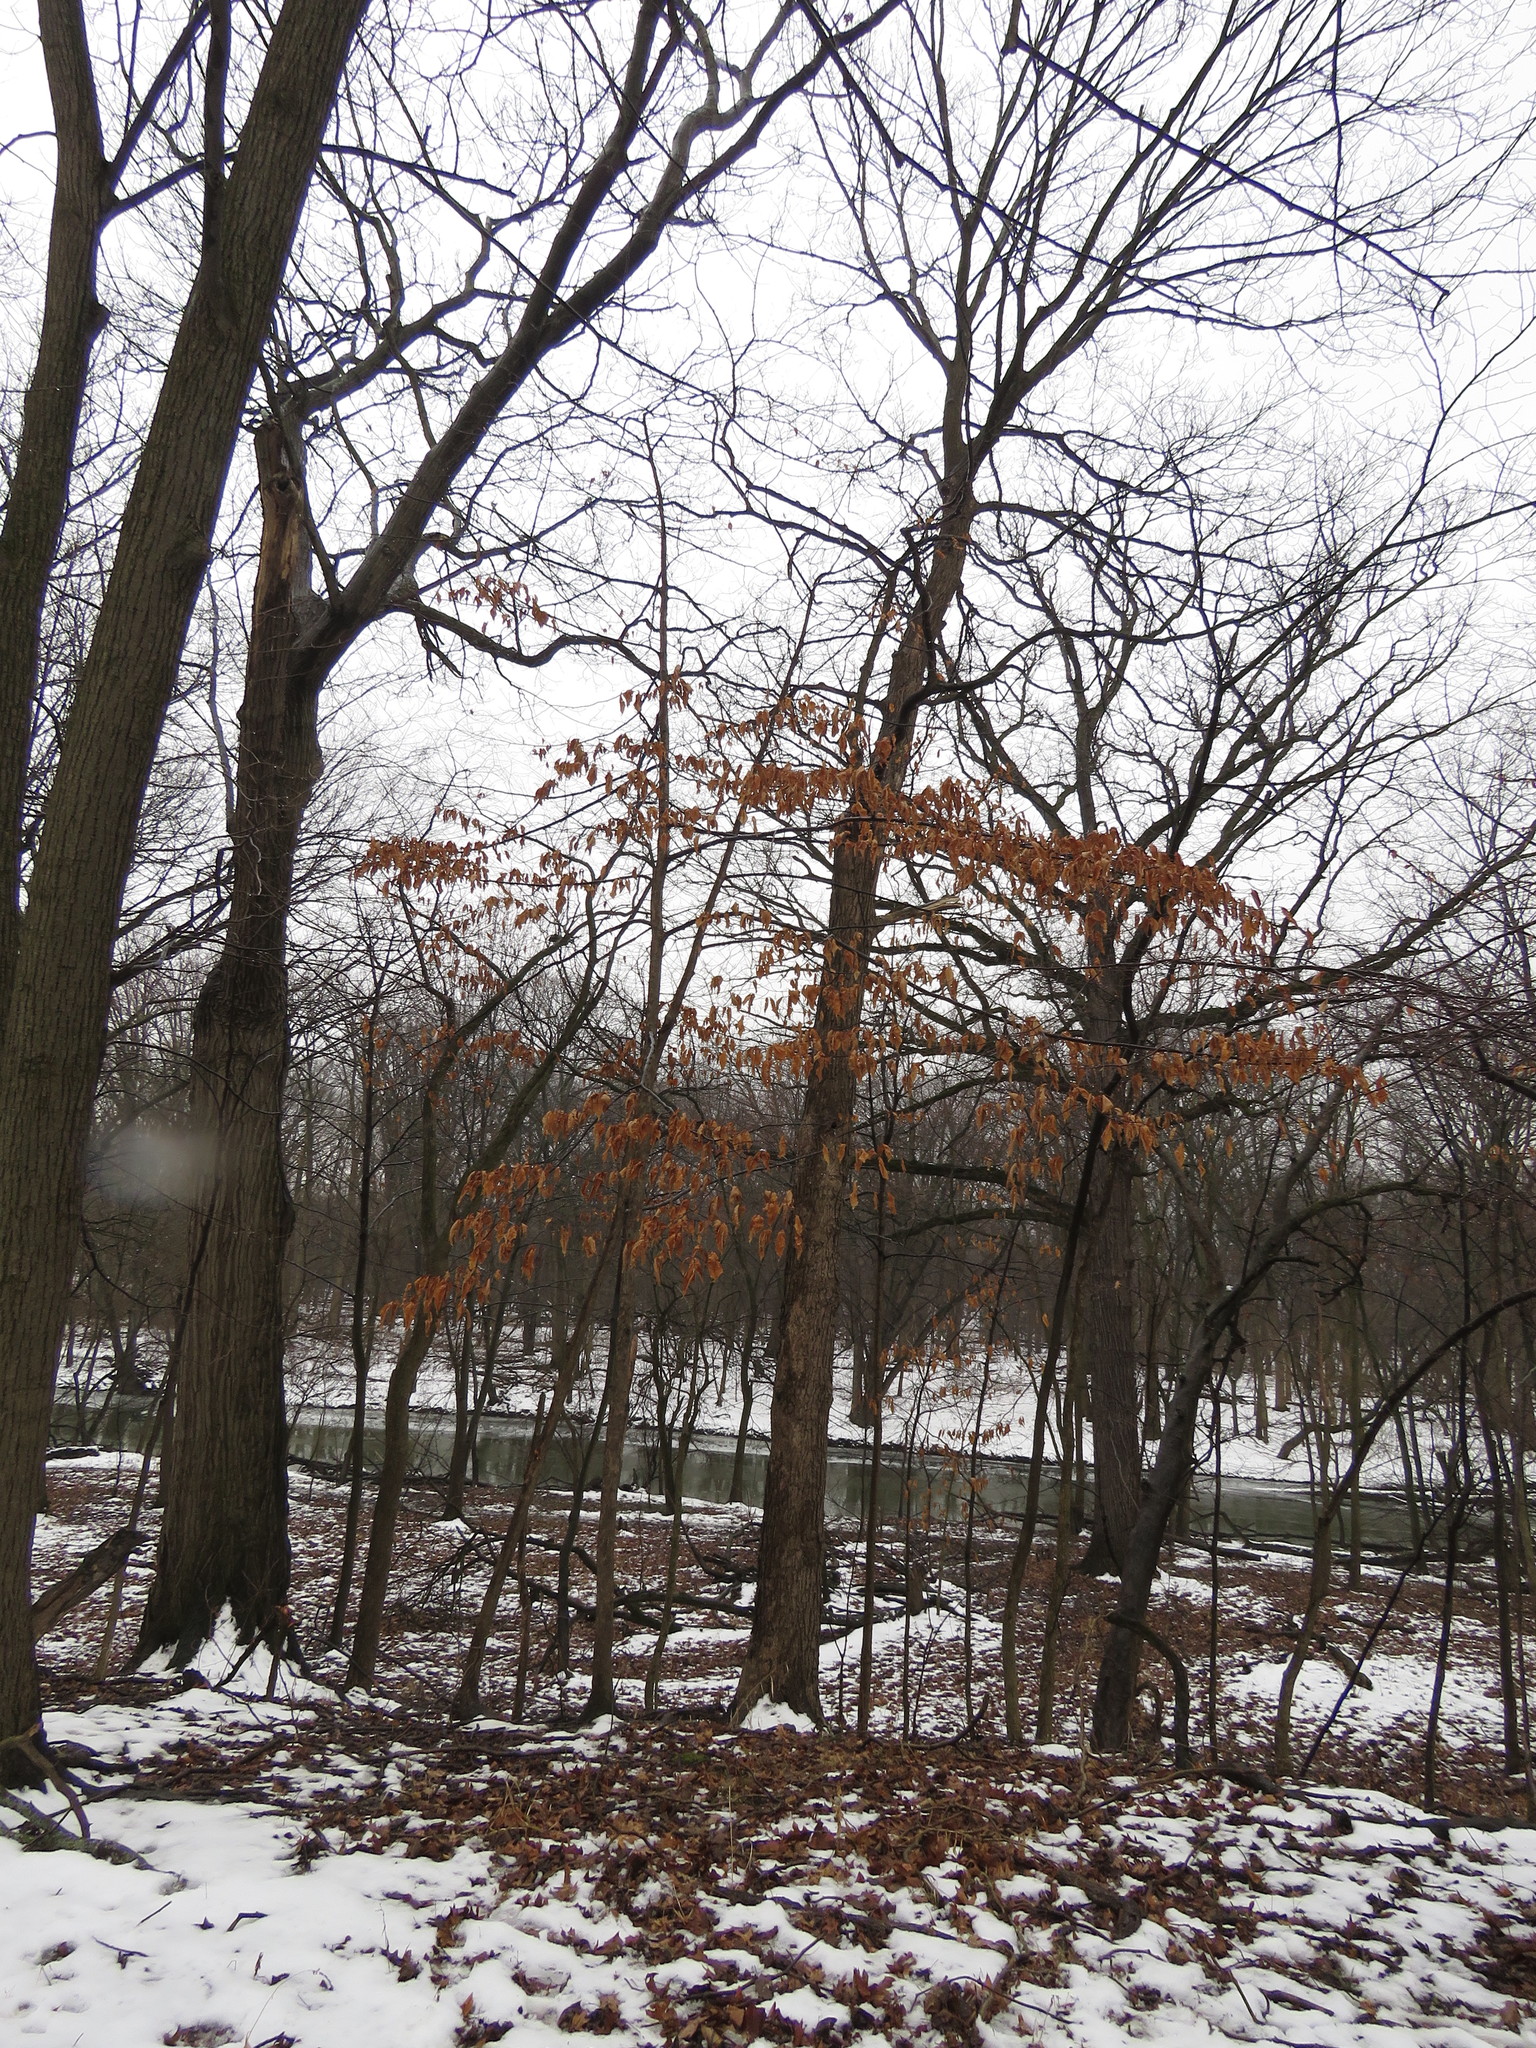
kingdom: Plantae
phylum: Tracheophyta
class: Magnoliopsida
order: Fagales
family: Betulaceae
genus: Ostrya
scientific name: Ostrya virginiana
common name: Ironwood
